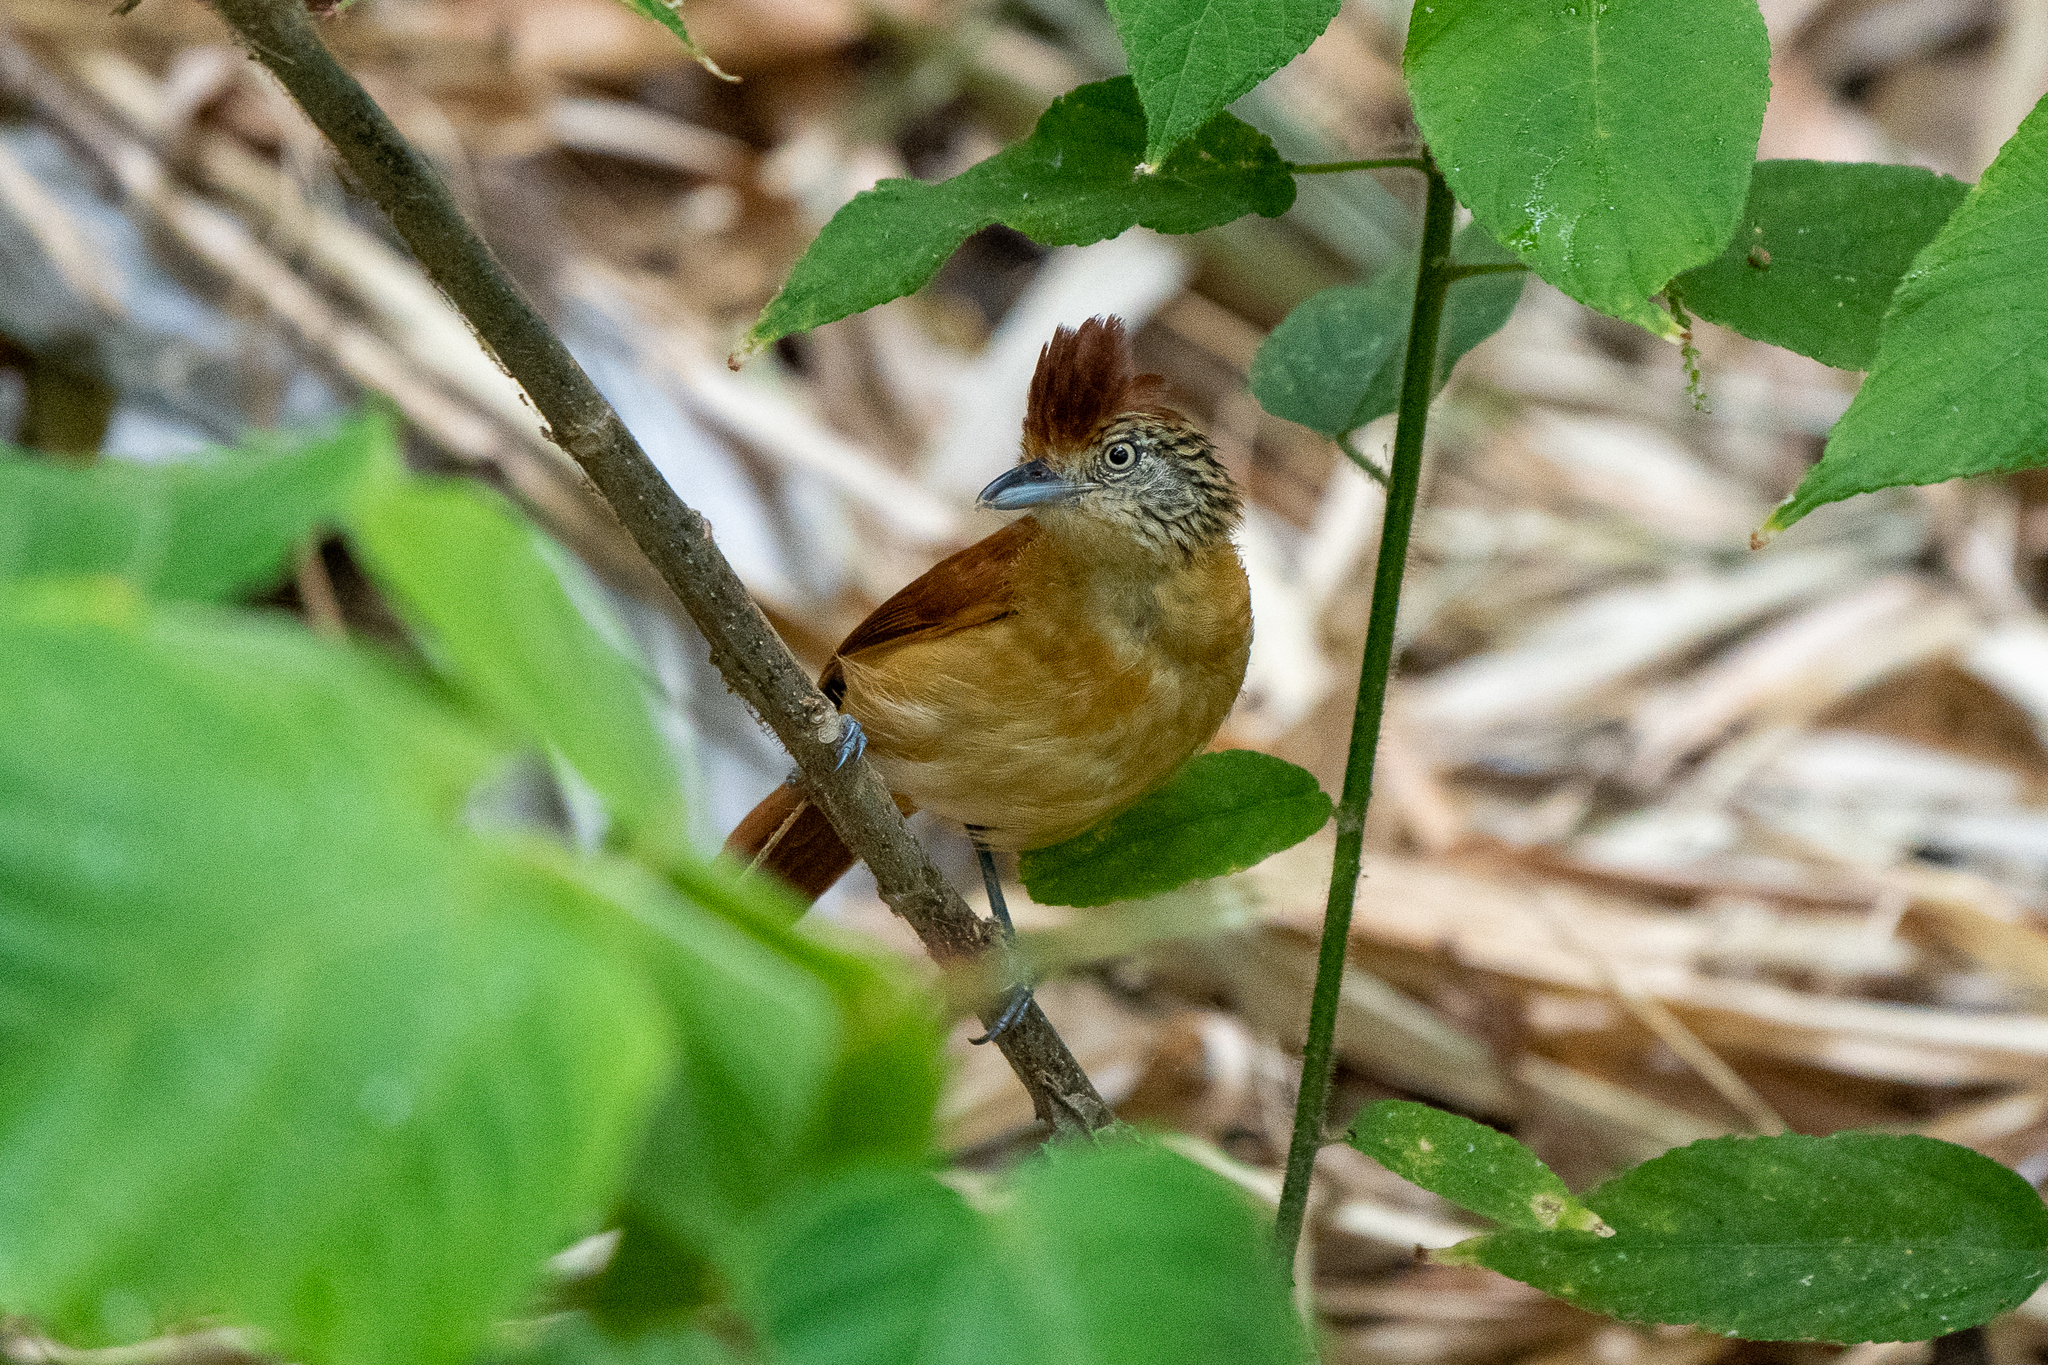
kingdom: Animalia
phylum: Chordata
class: Aves
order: Passeriformes
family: Thamnophilidae
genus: Thamnophilus
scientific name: Thamnophilus doliatus
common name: Barred antshrike
